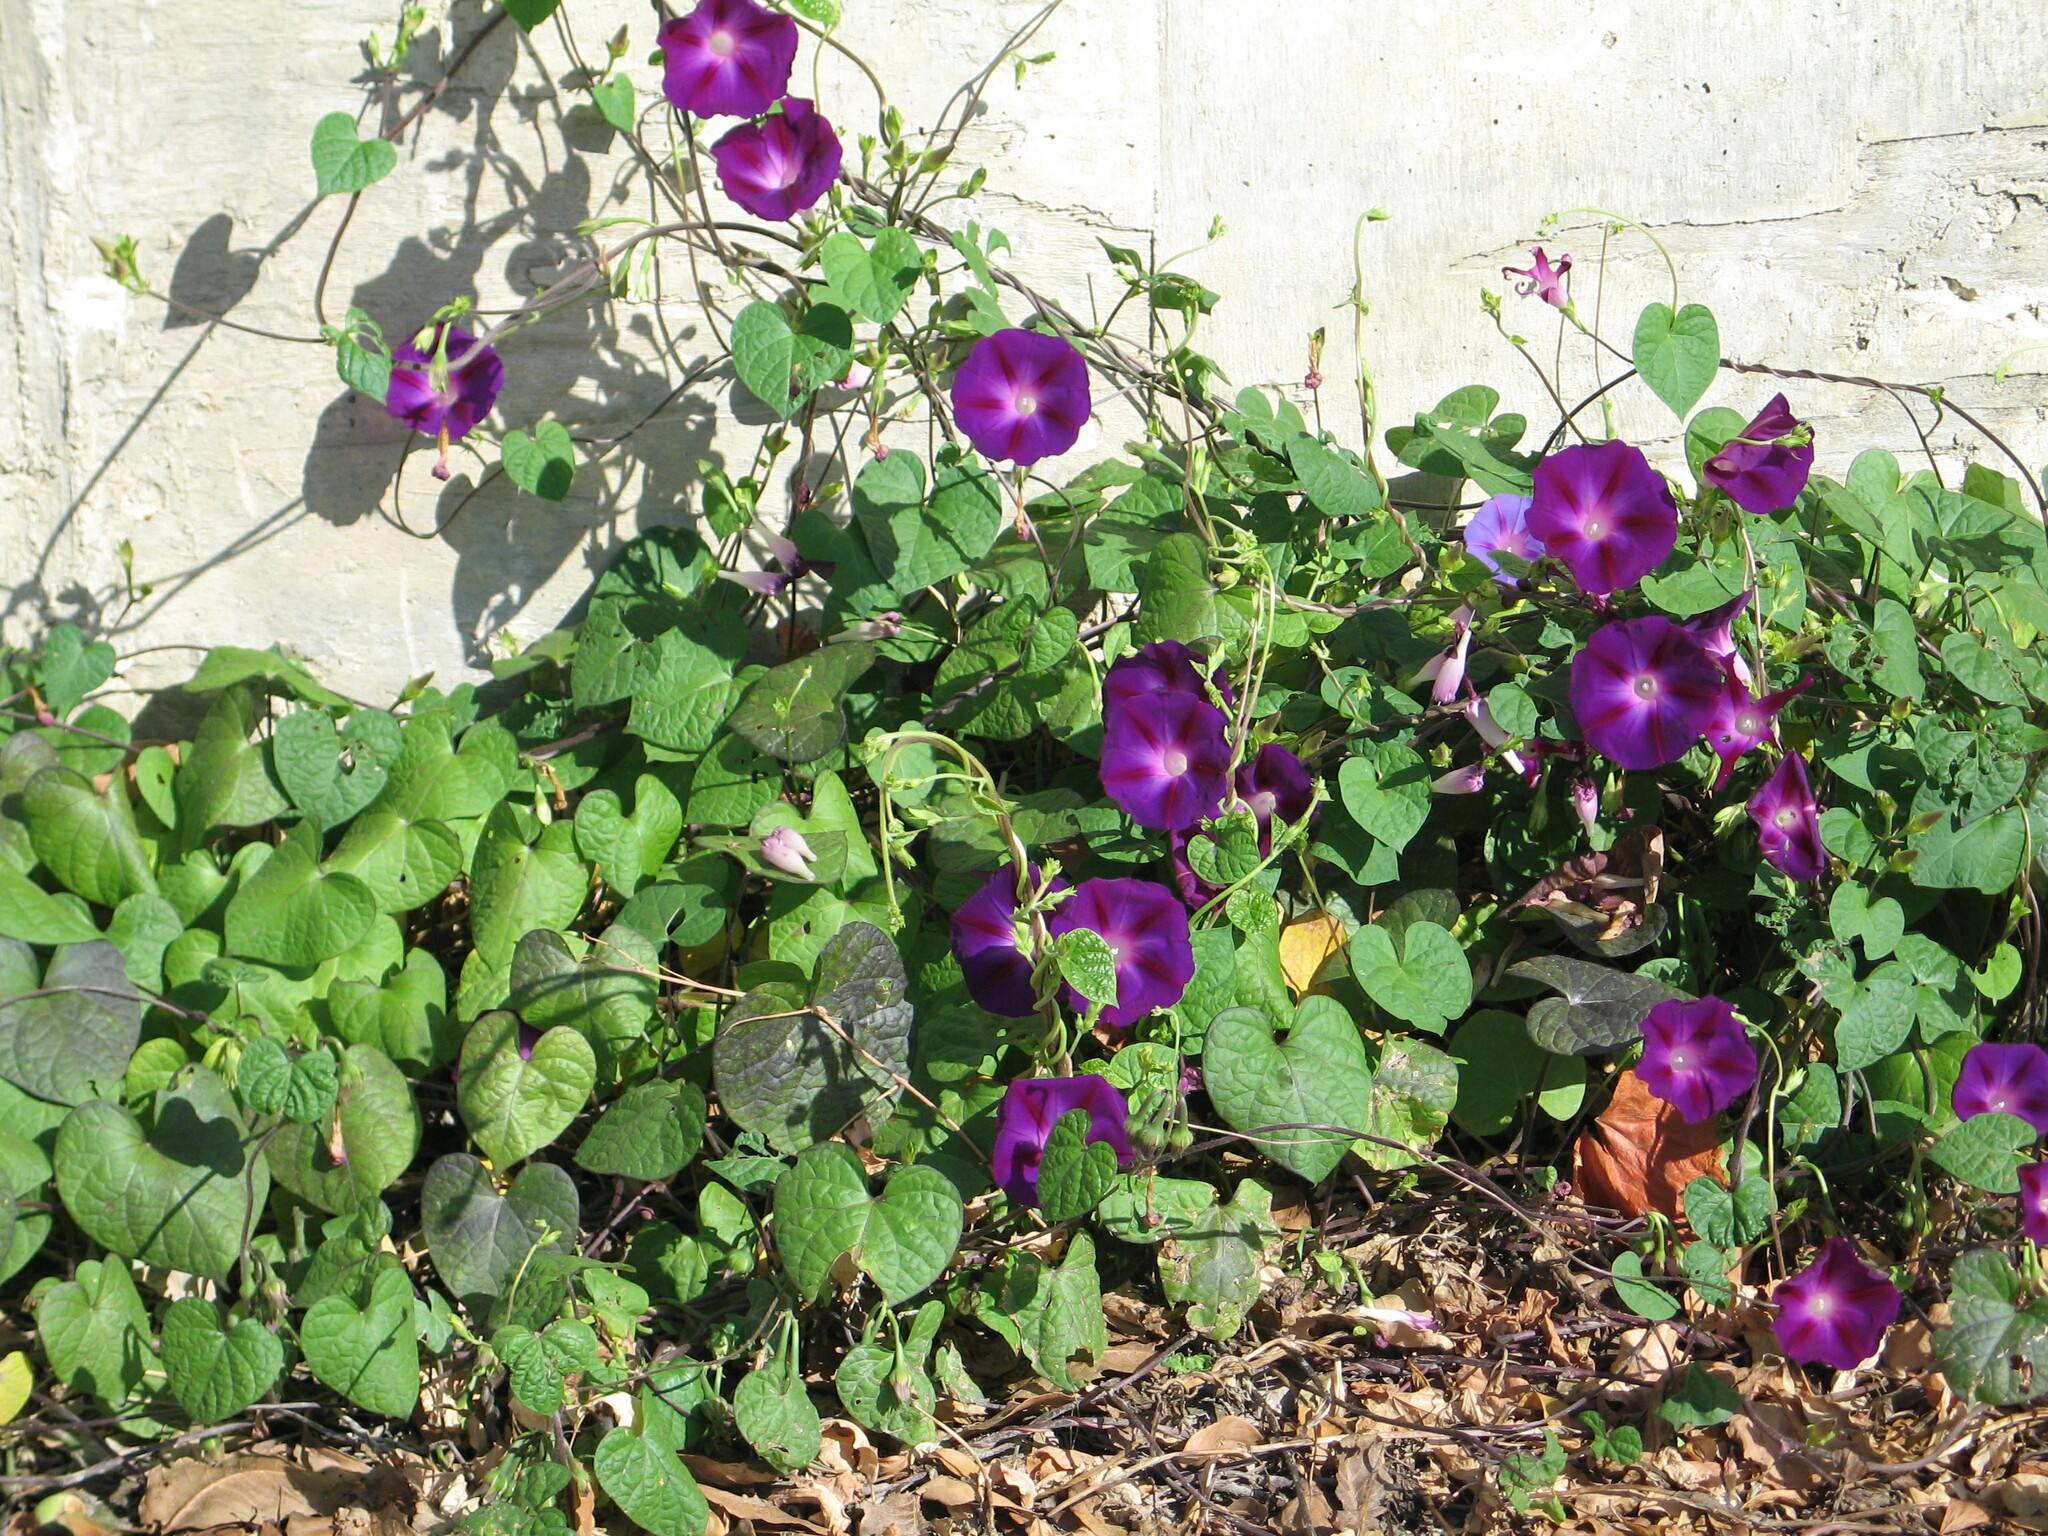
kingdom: Plantae
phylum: Tracheophyta
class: Magnoliopsida
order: Solanales
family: Convolvulaceae
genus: Ipomoea
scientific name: Ipomoea purpurea
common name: Common morning-glory
